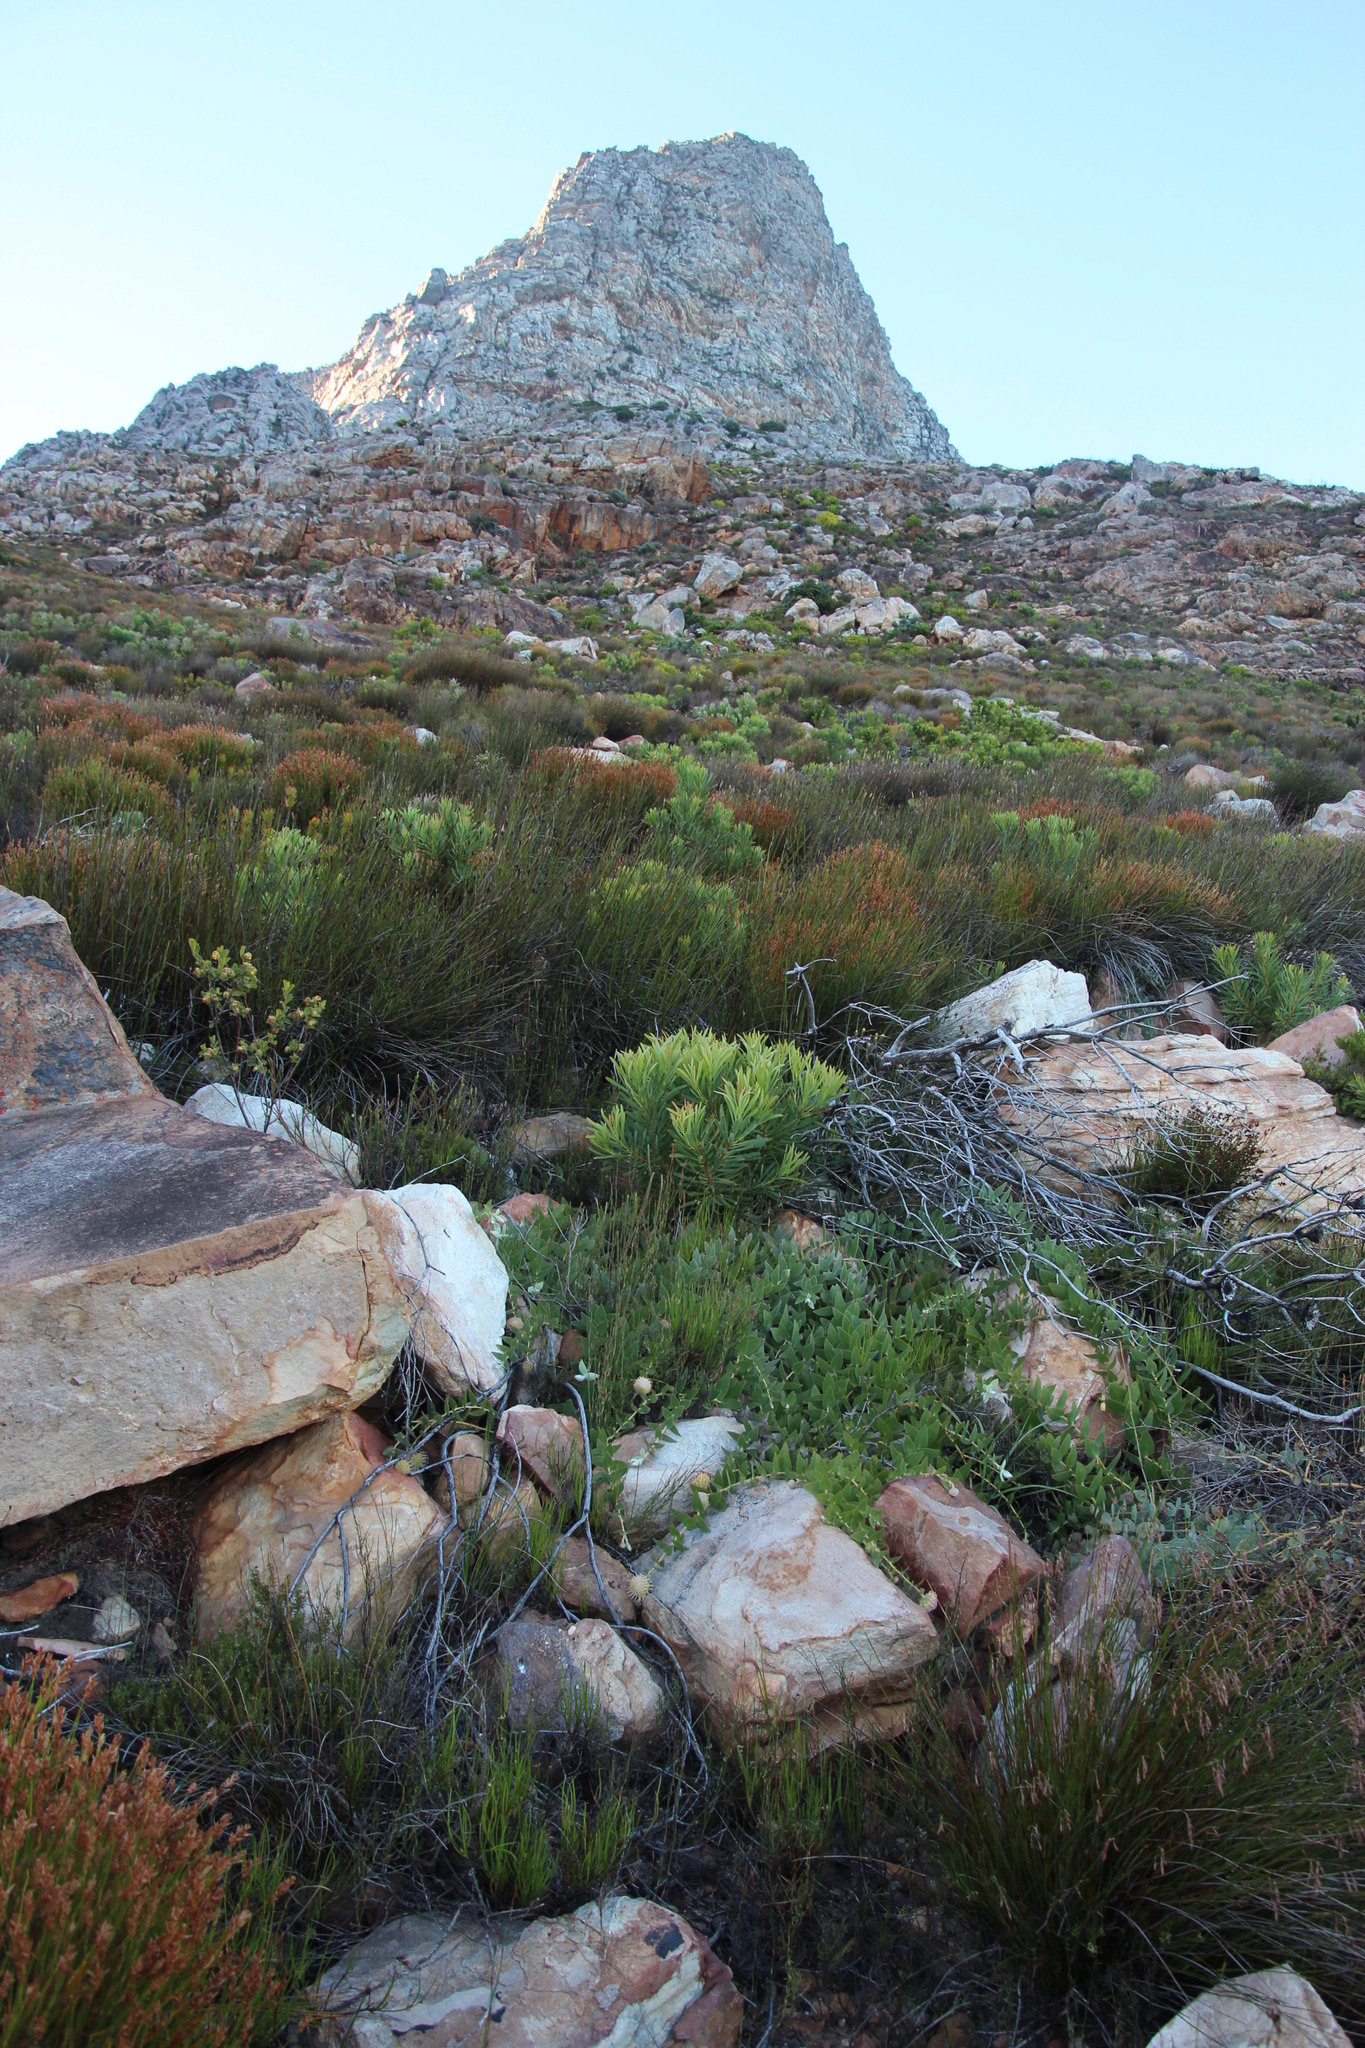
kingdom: Plantae
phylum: Tracheophyta
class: Magnoliopsida
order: Proteales
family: Proteaceae
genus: Leucospermum
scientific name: Leucospermum cordatum
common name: Heart-leaf pincushion
